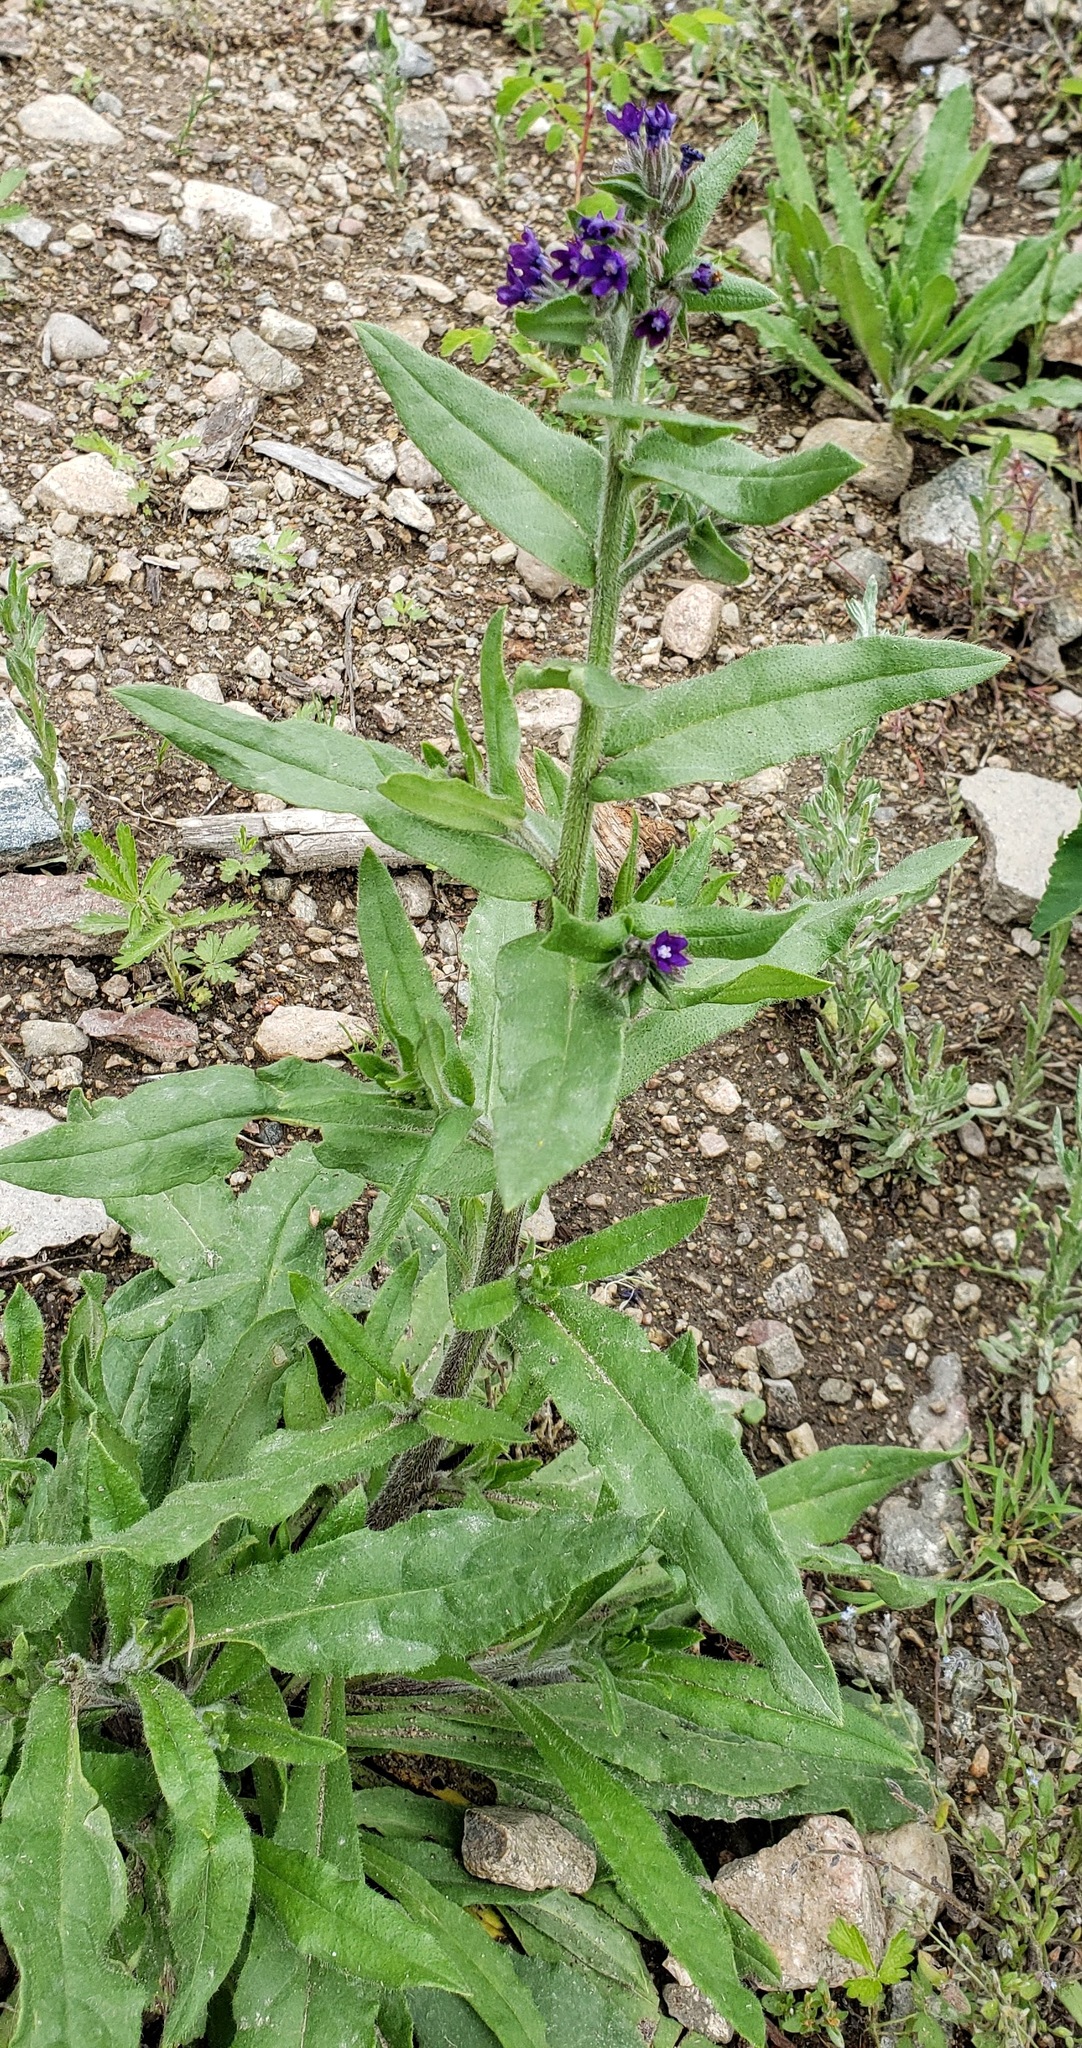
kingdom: Plantae
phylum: Tracheophyta
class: Magnoliopsida
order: Boraginales
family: Boraginaceae
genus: Anchusa
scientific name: Anchusa officinalis
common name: Alkanet
